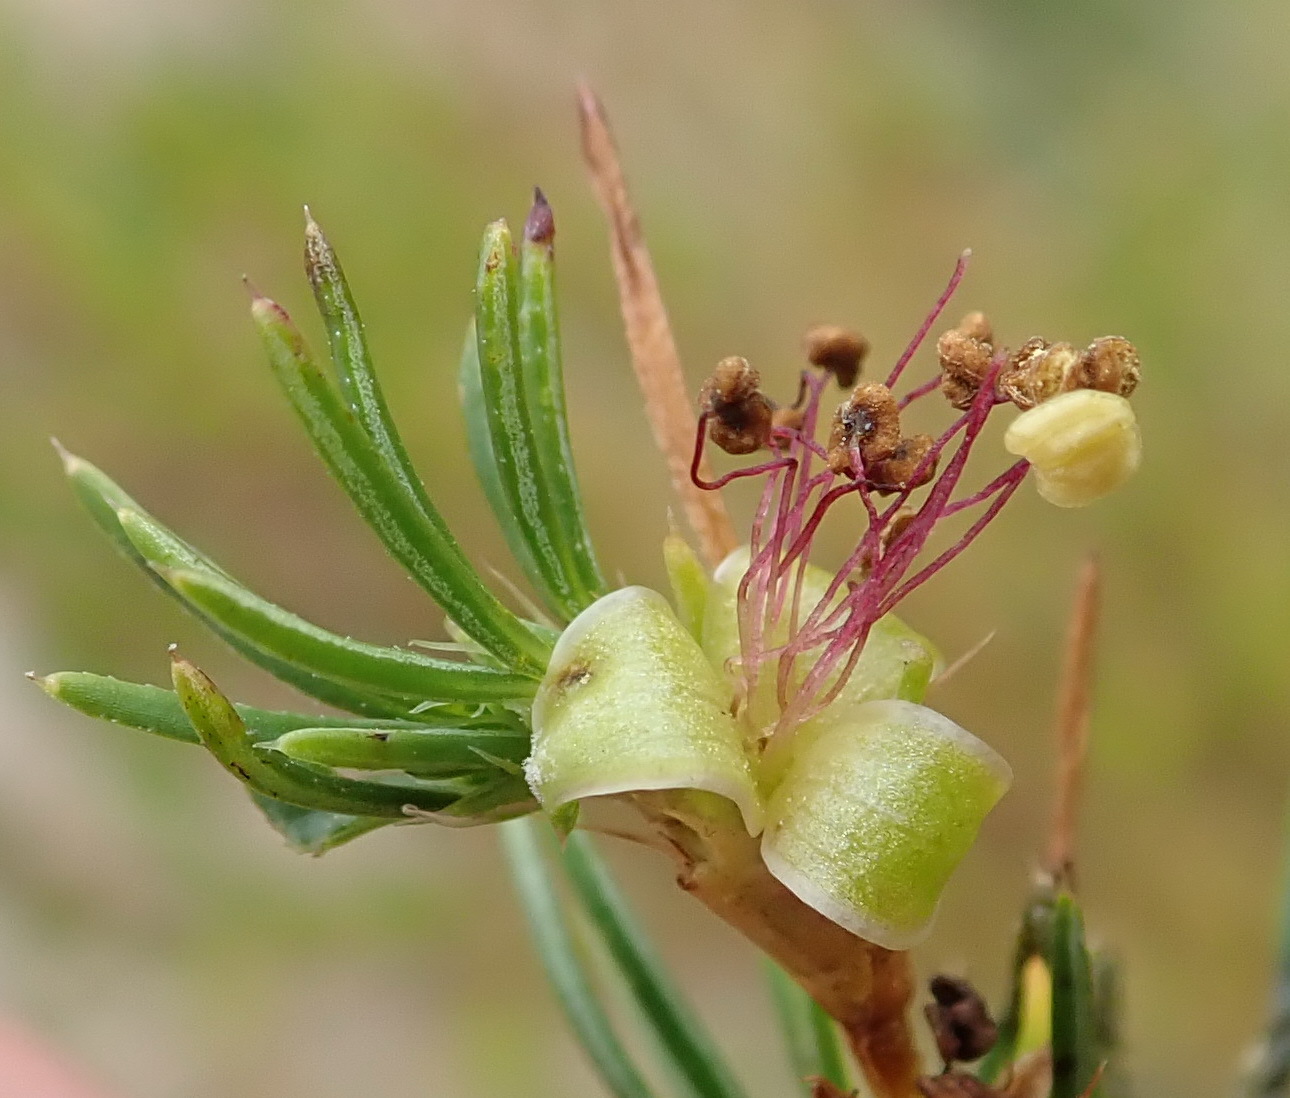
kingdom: Plantae
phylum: Tracheophyta
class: Magnoliopsida
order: Rosales
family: Rosaceae
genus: Cliffortia
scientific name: Cliffortia burchellii
